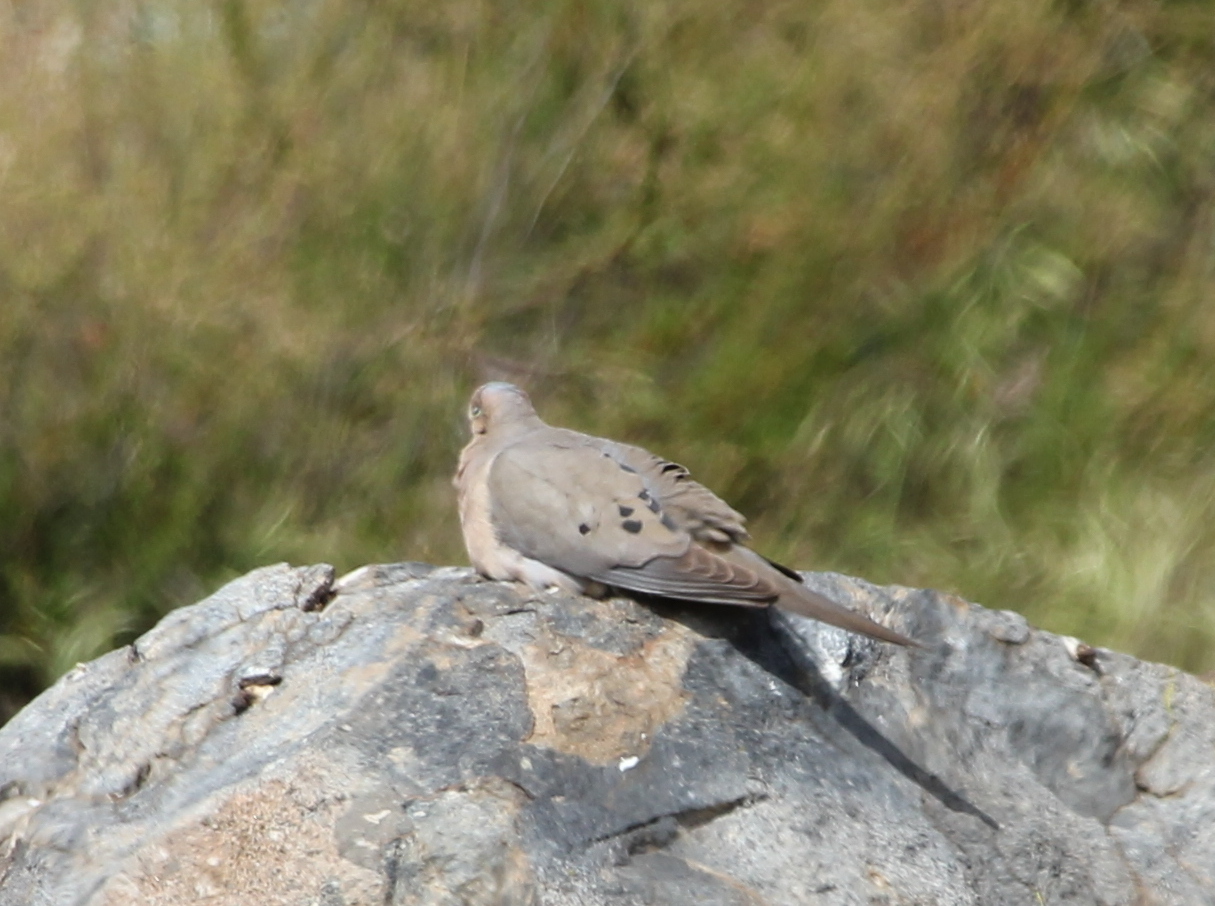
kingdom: Animalia
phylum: Chordata
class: Aves
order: Columbiformes
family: Columbidae
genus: Zenaida
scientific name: Zenaida macroura
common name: Mourning dove
